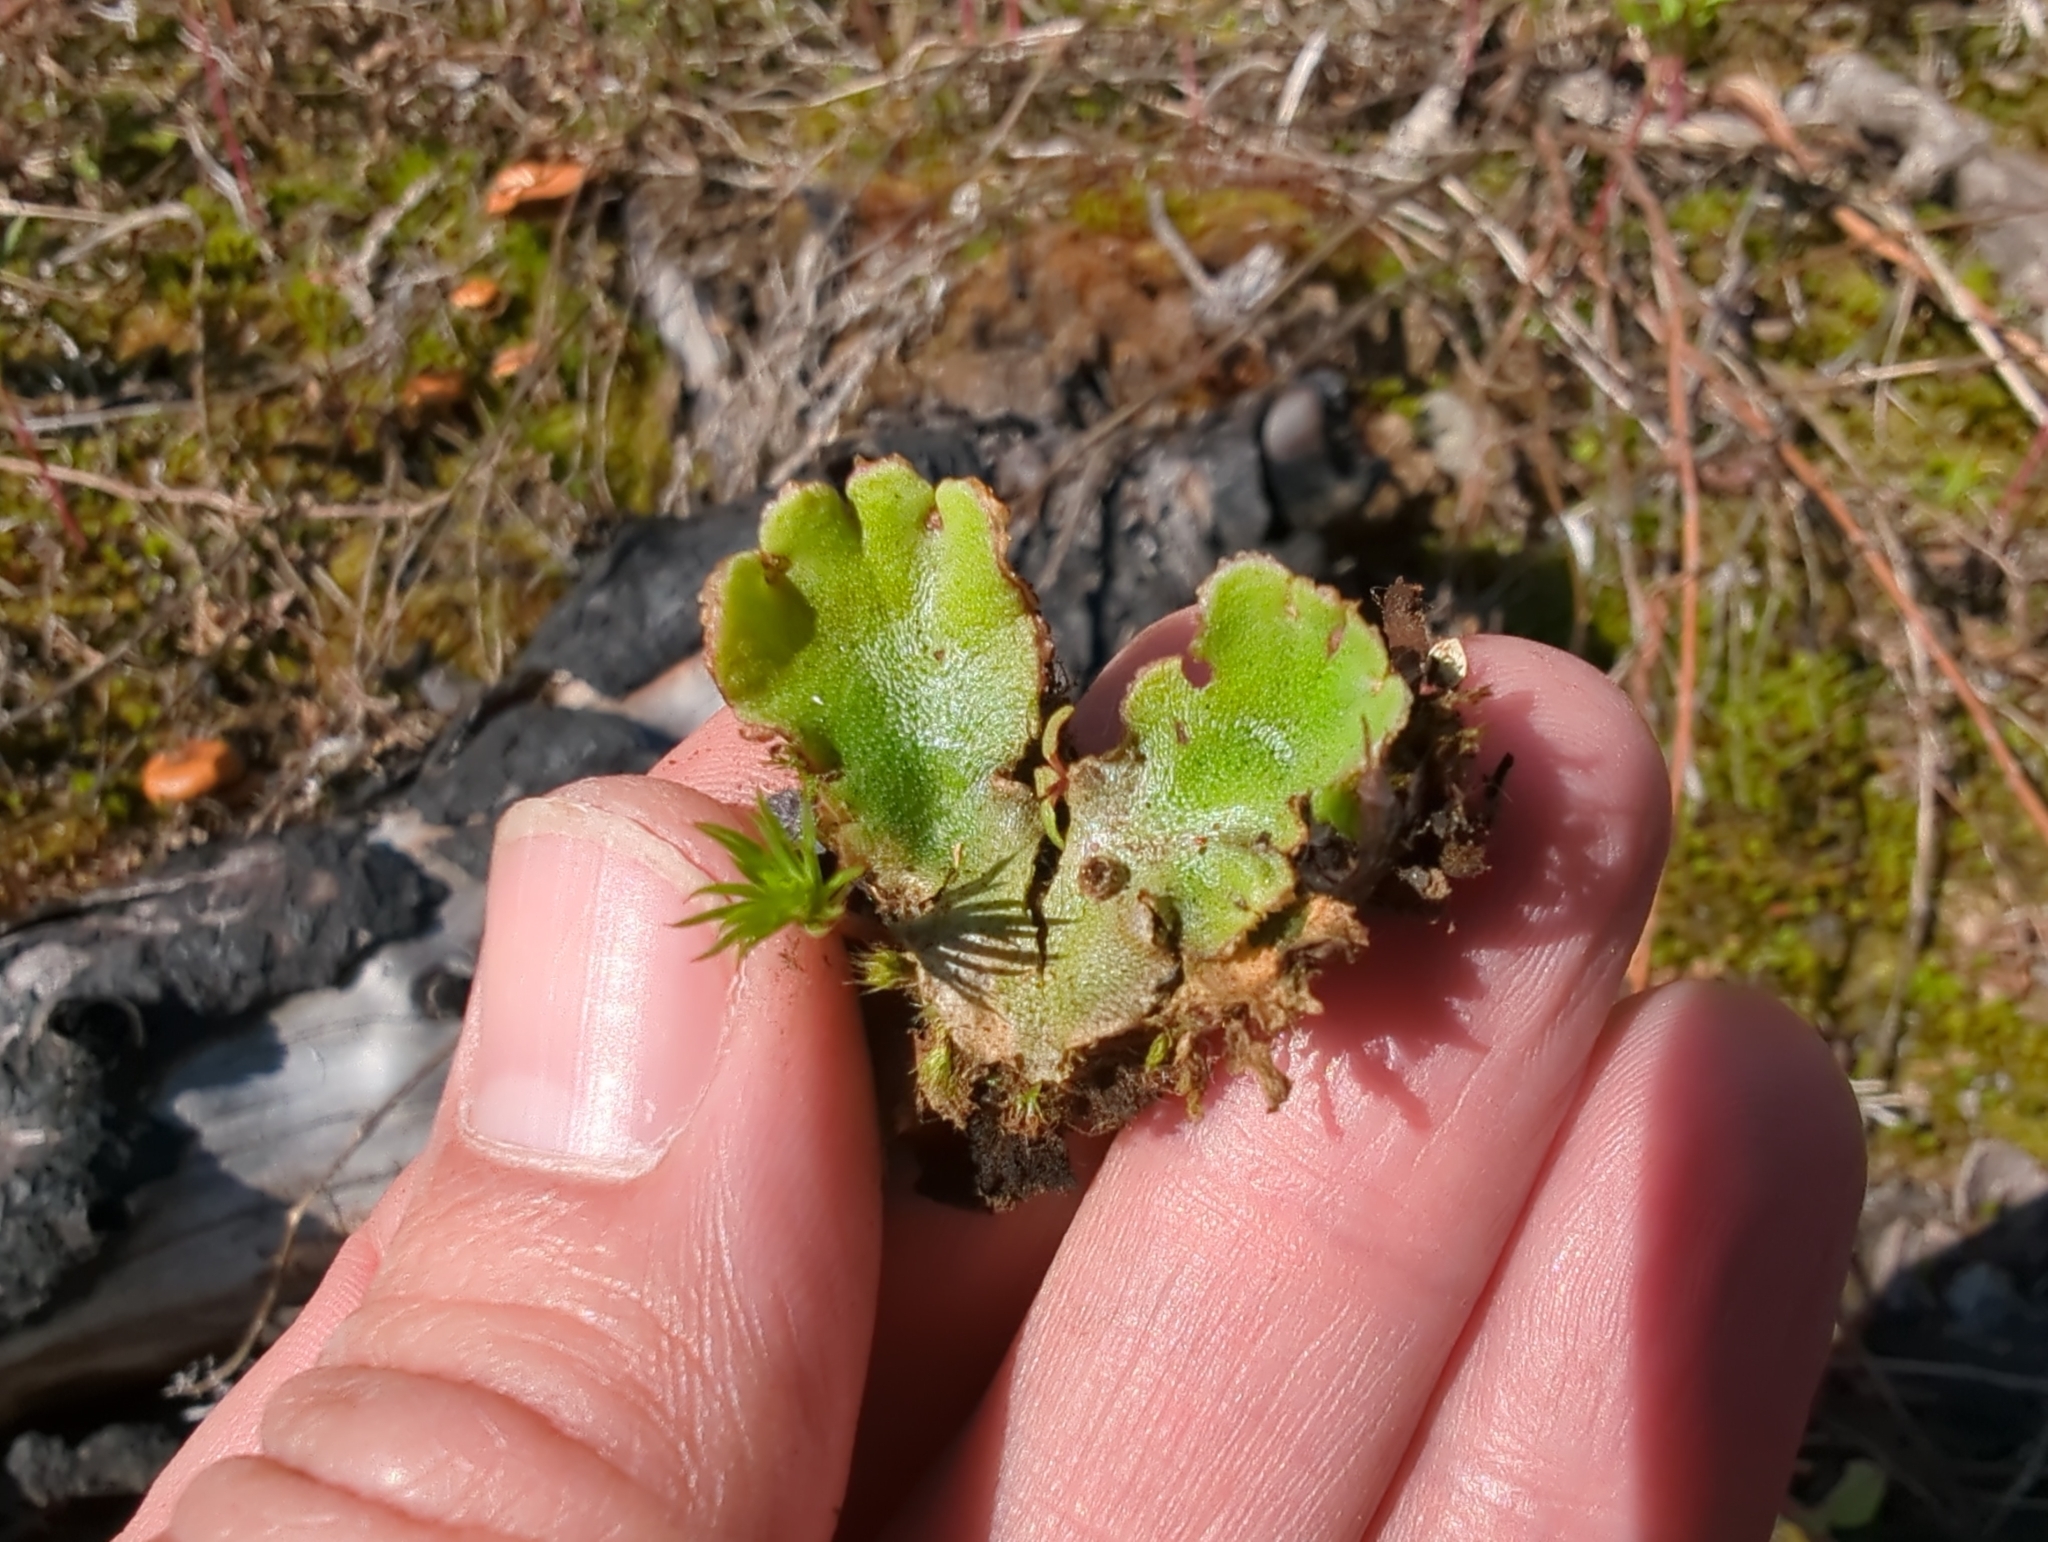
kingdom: Plantae
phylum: Marchantiophyta
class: Marchantiopsida
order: Marchantiales
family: Marchantiaceae
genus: Marchantia
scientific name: Marchantia polymorpha
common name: Common liverwort
